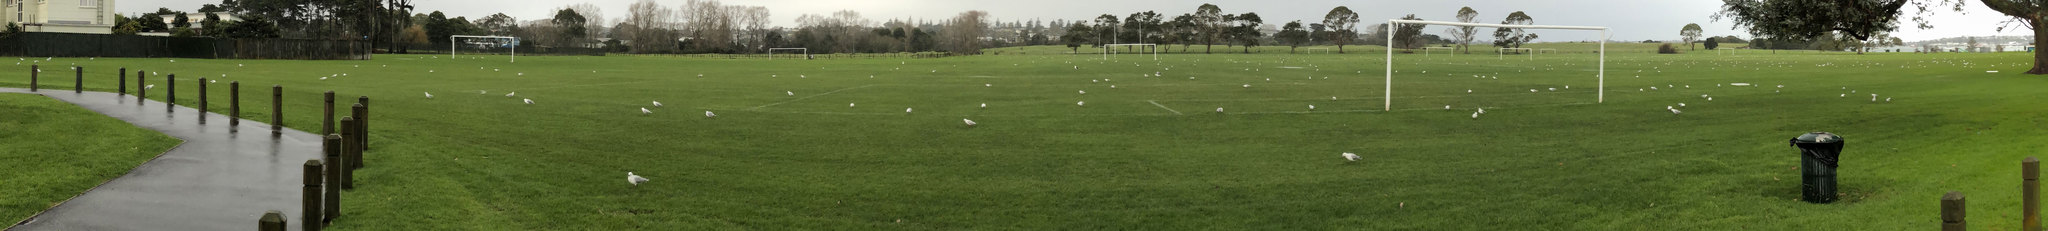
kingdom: Animalia
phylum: Chordata
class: Aves
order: Charadriiformes
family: Laridae
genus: Chroicocephalus
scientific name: Chroicocephalus novaehollandiae
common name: Silver gull
